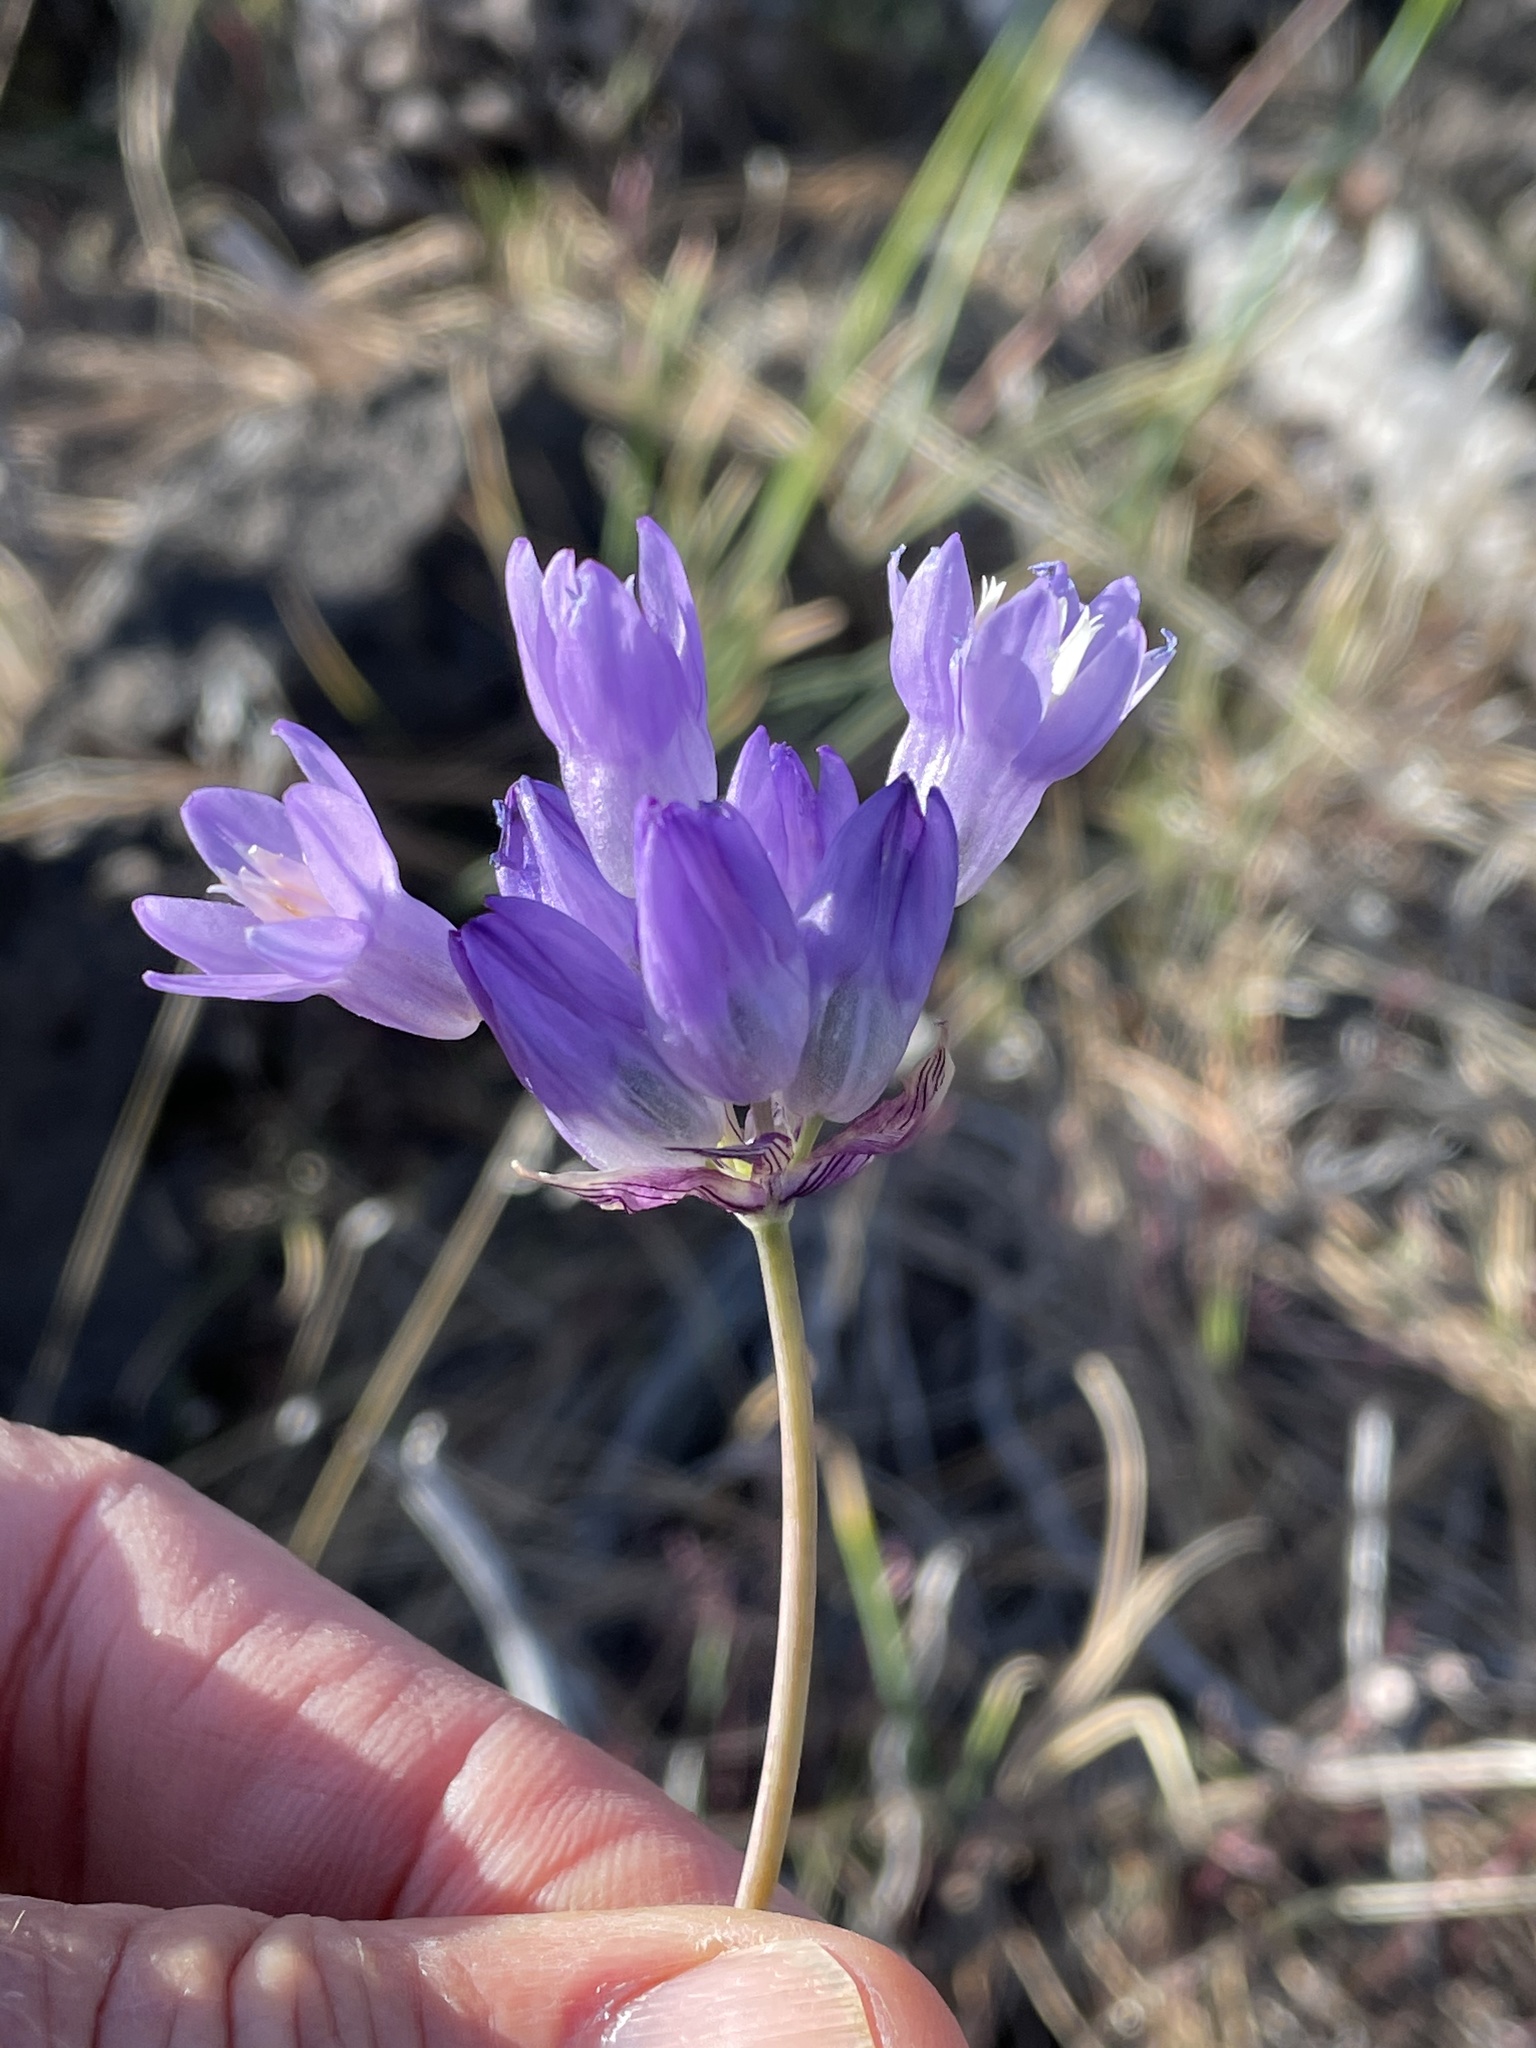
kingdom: Plantae
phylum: Tracheophyta
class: Liliopsida
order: Asparagales
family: Asparagaceae
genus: Dipterostemon
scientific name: Dipterostemon capitatus
